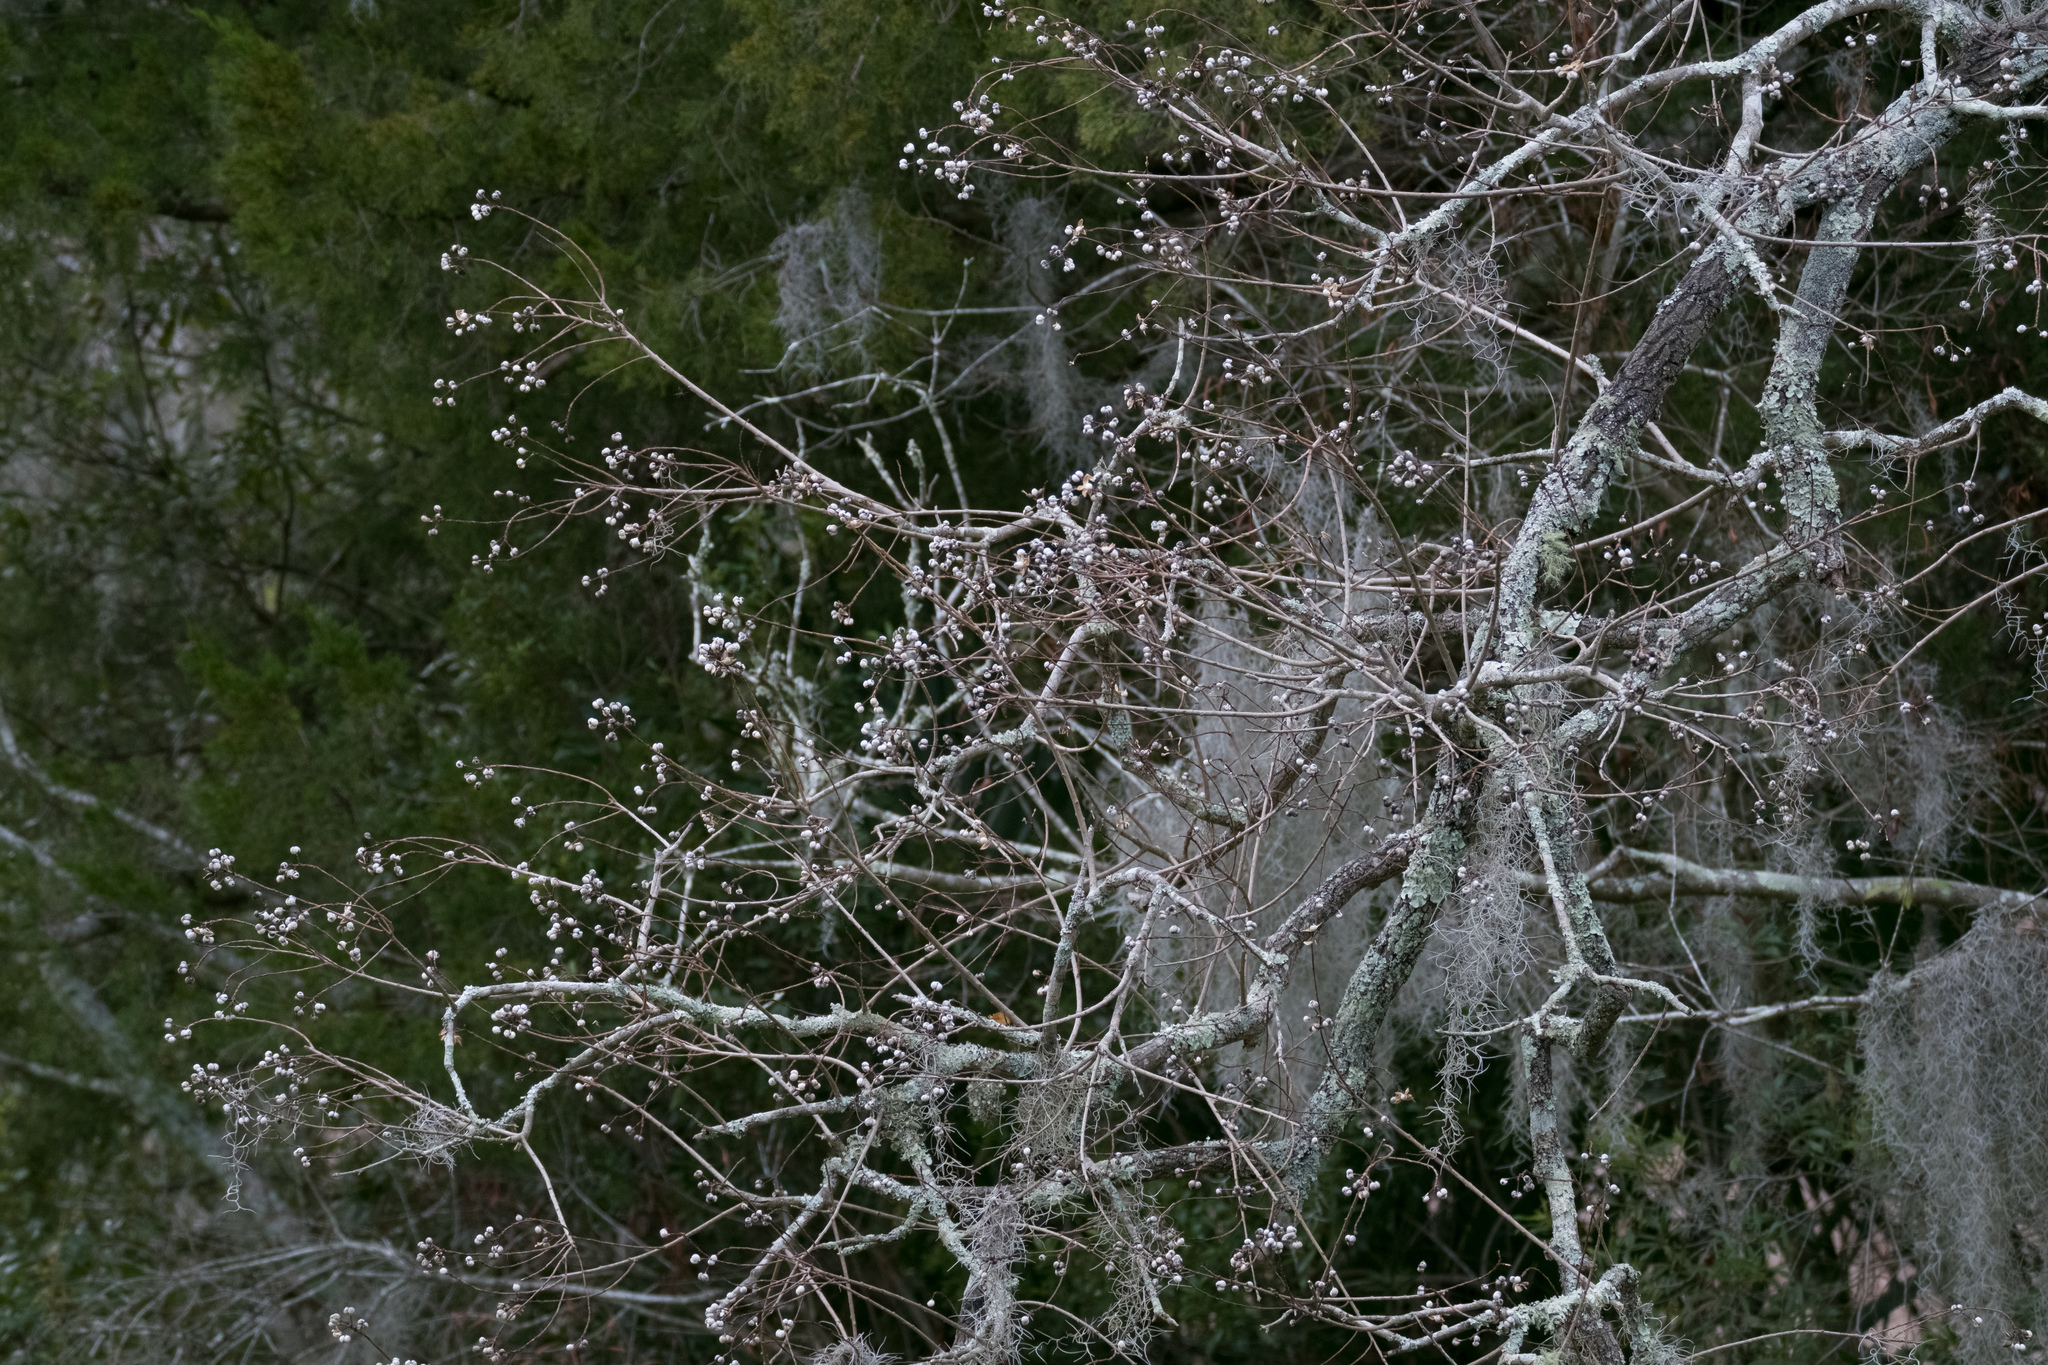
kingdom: Plantae
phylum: Tracheophyta
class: Magnoliopsida
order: Malpighiales
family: Euphorbiaceae
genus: Triadica
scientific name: Triadica sebifera
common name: Chinese tallow
